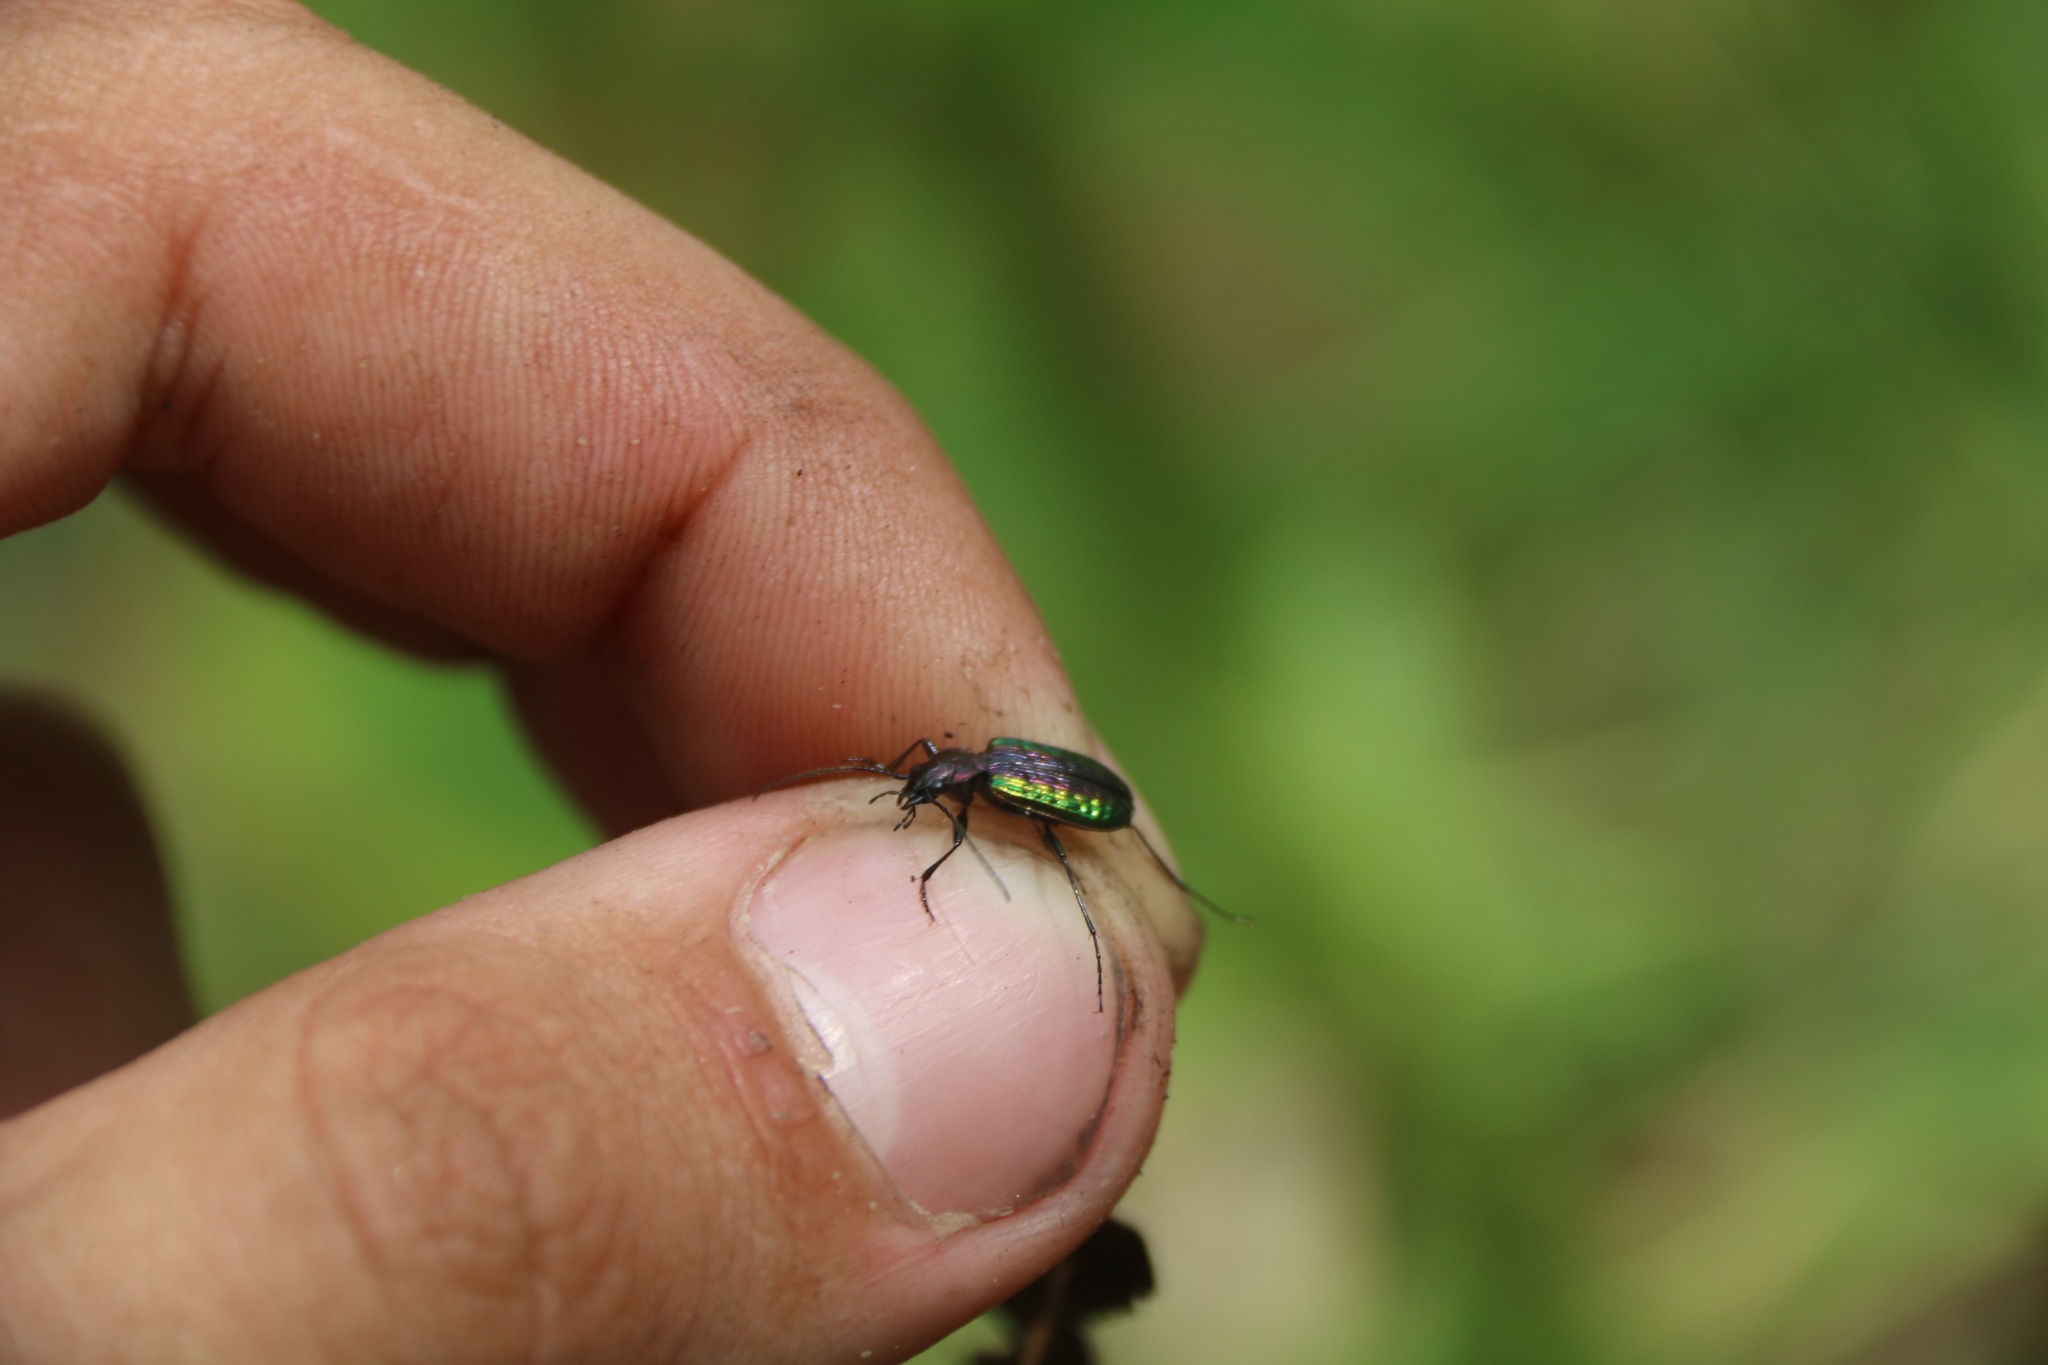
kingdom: Animalia
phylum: Arthropoda
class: Insecta
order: Coleoptera
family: Carabidae
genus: Nebria
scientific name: Nebria banksi
